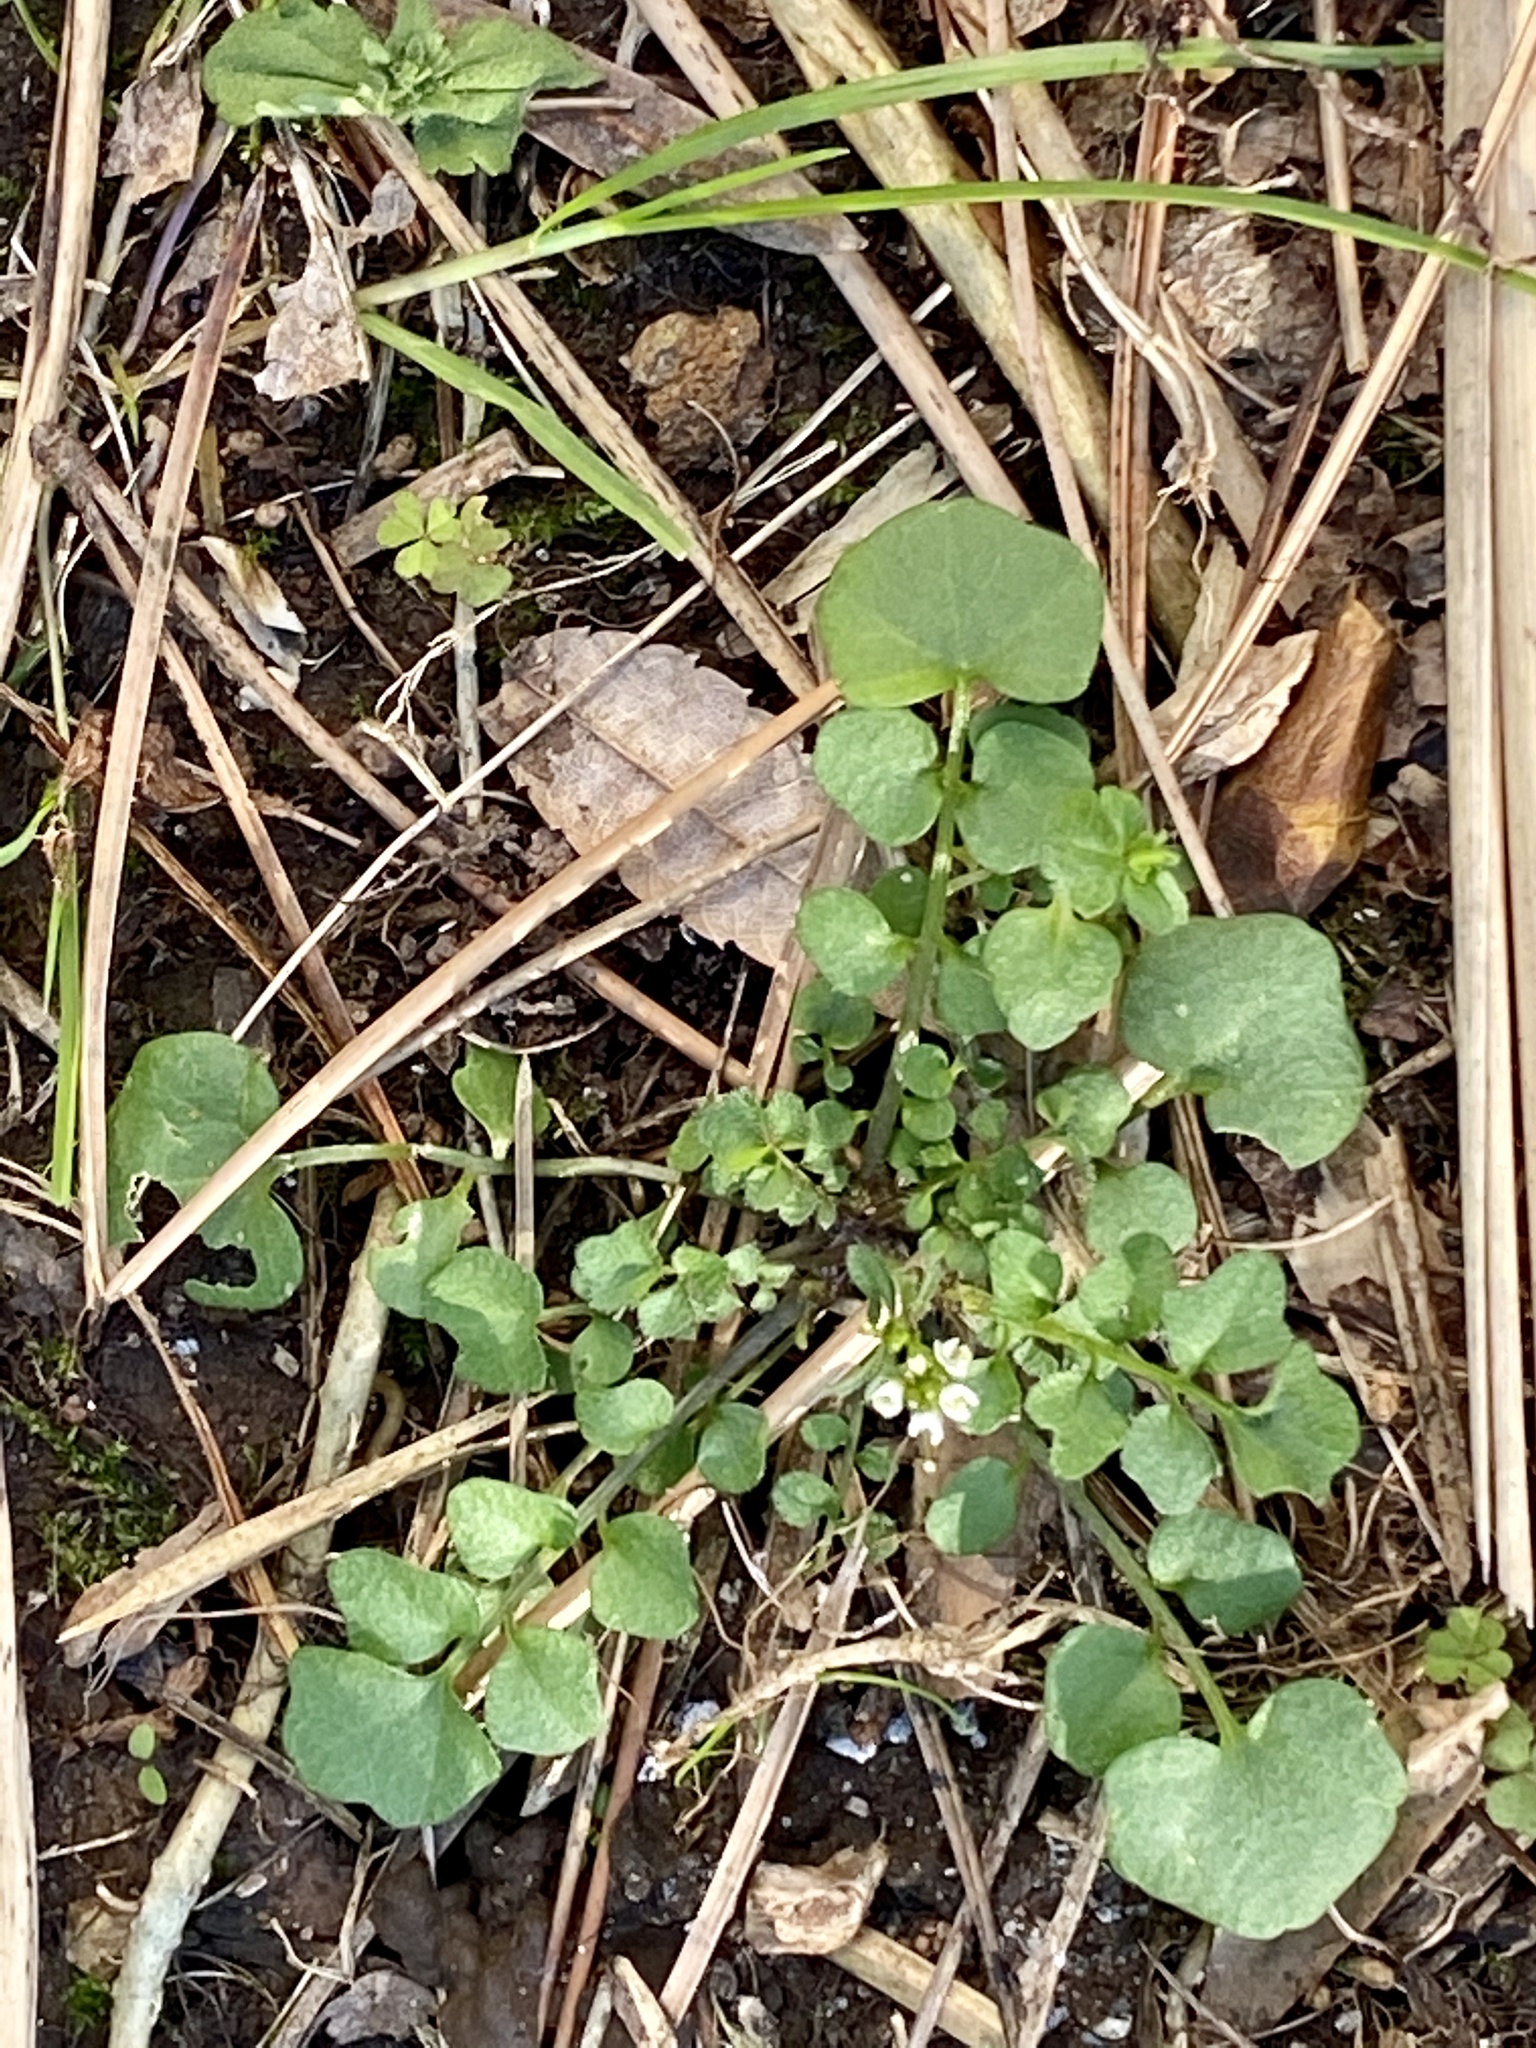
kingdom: Plantae
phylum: Tracheophyta
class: Magnoliopsida
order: Brassicales
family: Brassicaceae
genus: Cardamine
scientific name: Cardamine hirsuta
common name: Hairy bittercress
